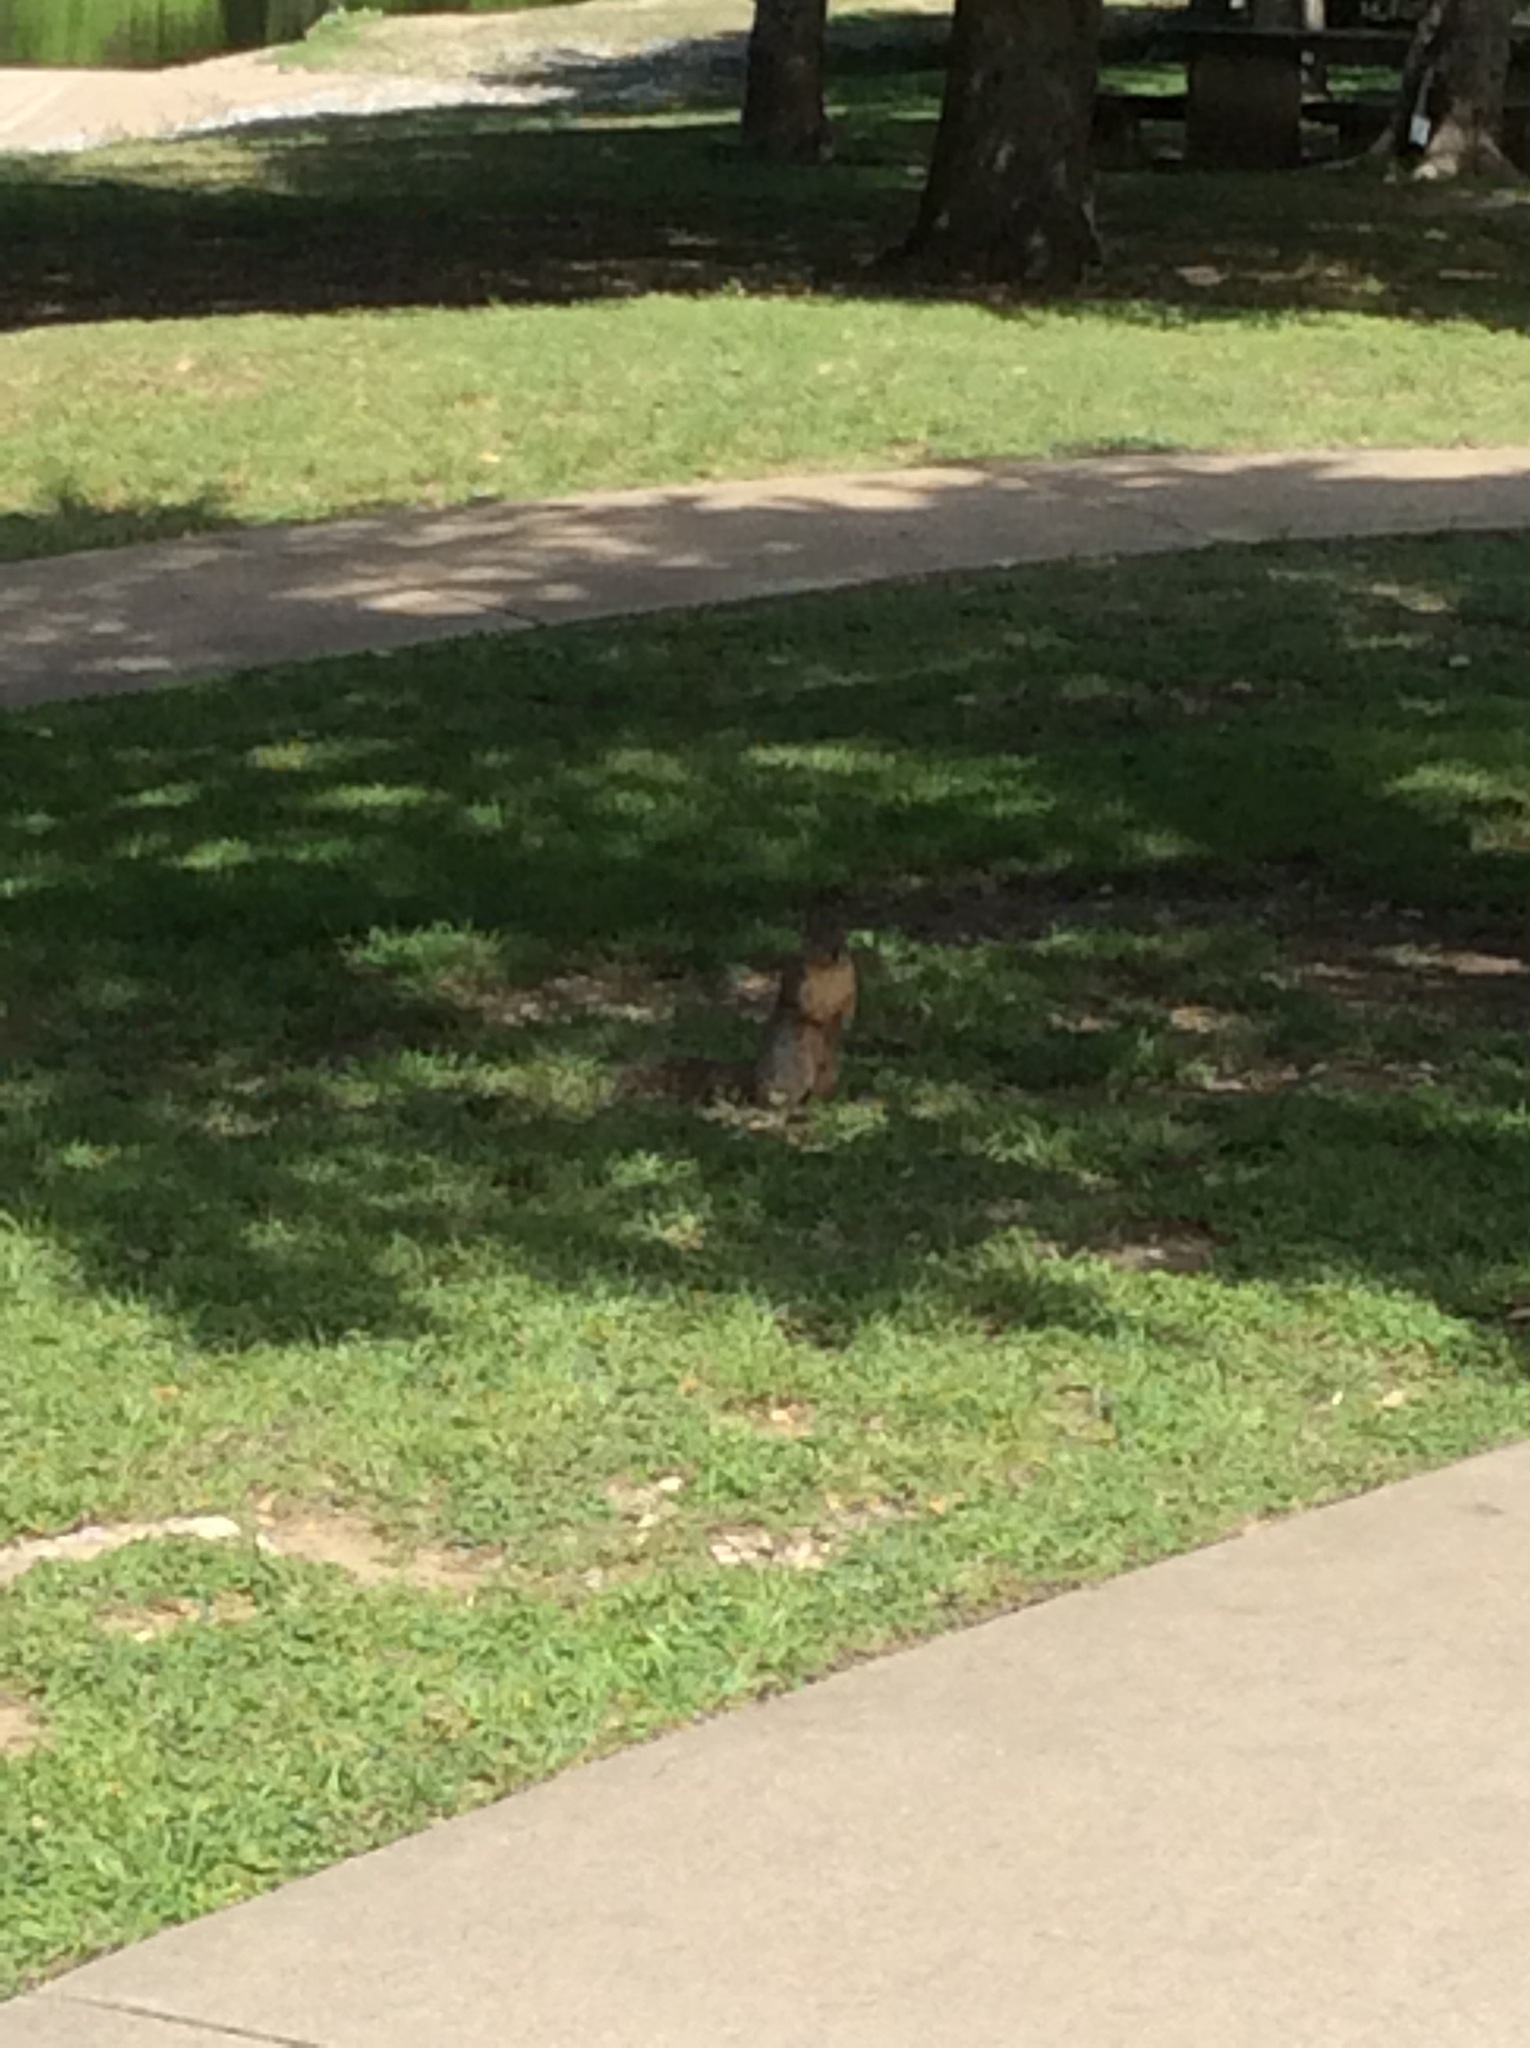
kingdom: Animalia
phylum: Chordata
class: Mammalia
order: Rodentia
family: Sciuridae
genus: Sciurus
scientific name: Sciurus niger
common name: Fox squirrel
